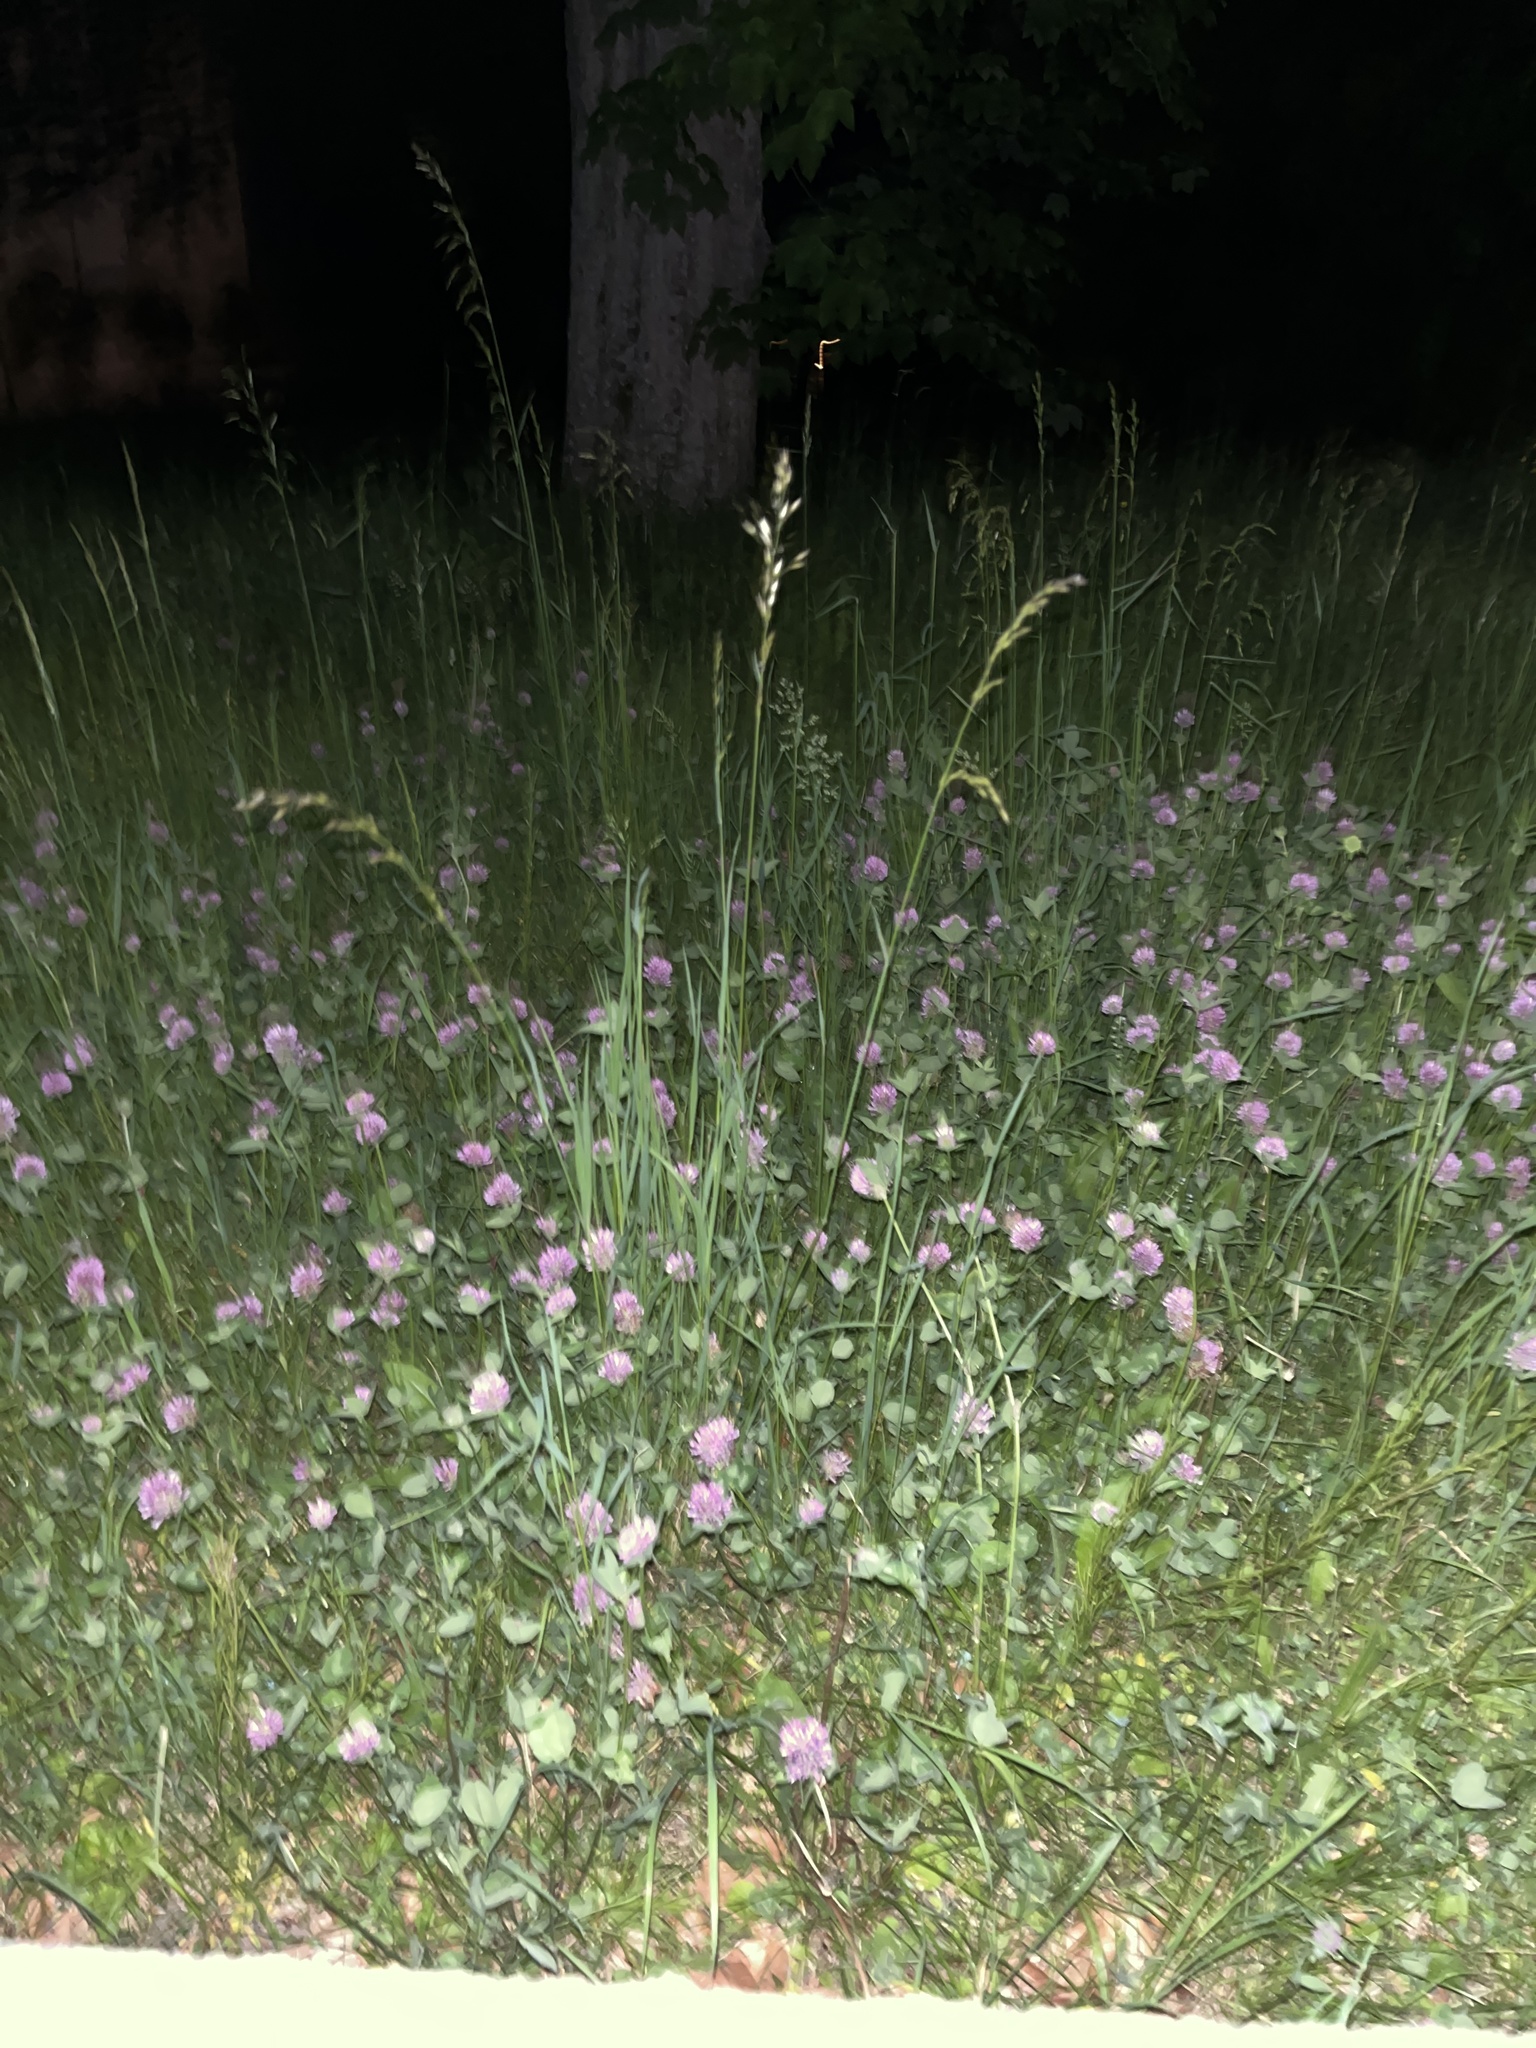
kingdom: Plantae
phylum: Tracheophyta
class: Magnoliopsida
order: Fabales
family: Fabaceae
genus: Trifolium
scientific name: Trifolium pratense
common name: Red clover
